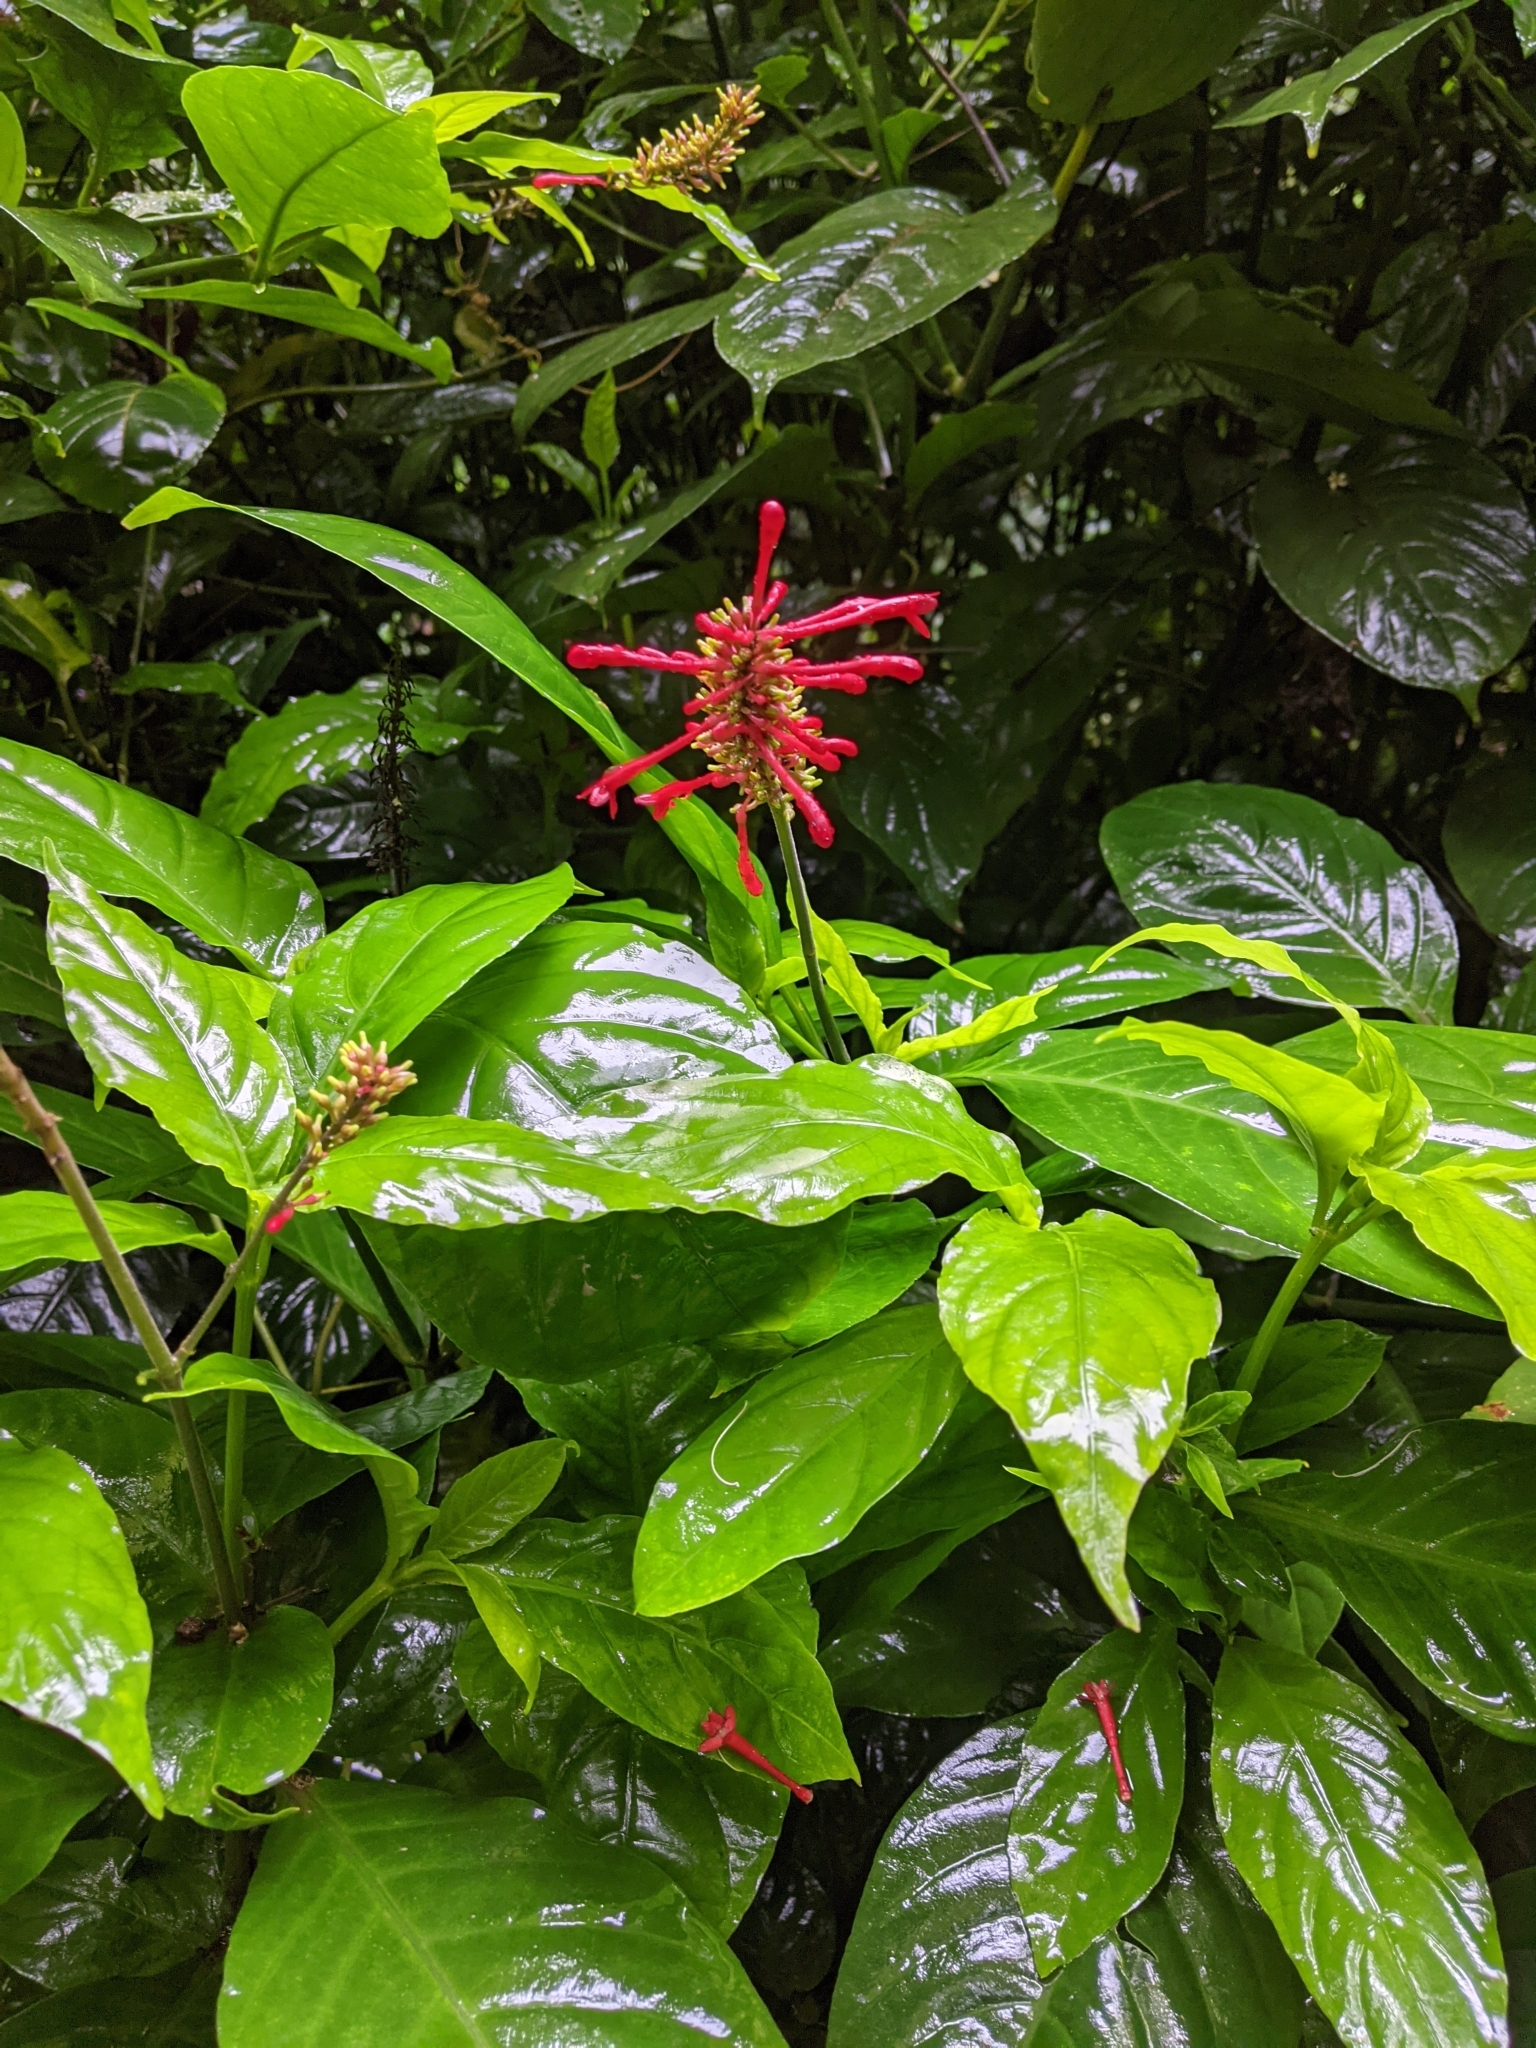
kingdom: Plantae
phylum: Tracheophyta
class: Magnoliopsida
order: Lamiales
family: Acanthaceae
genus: Odontonema
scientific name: Odontonema cuspidatum
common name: Mottled toothedthread
